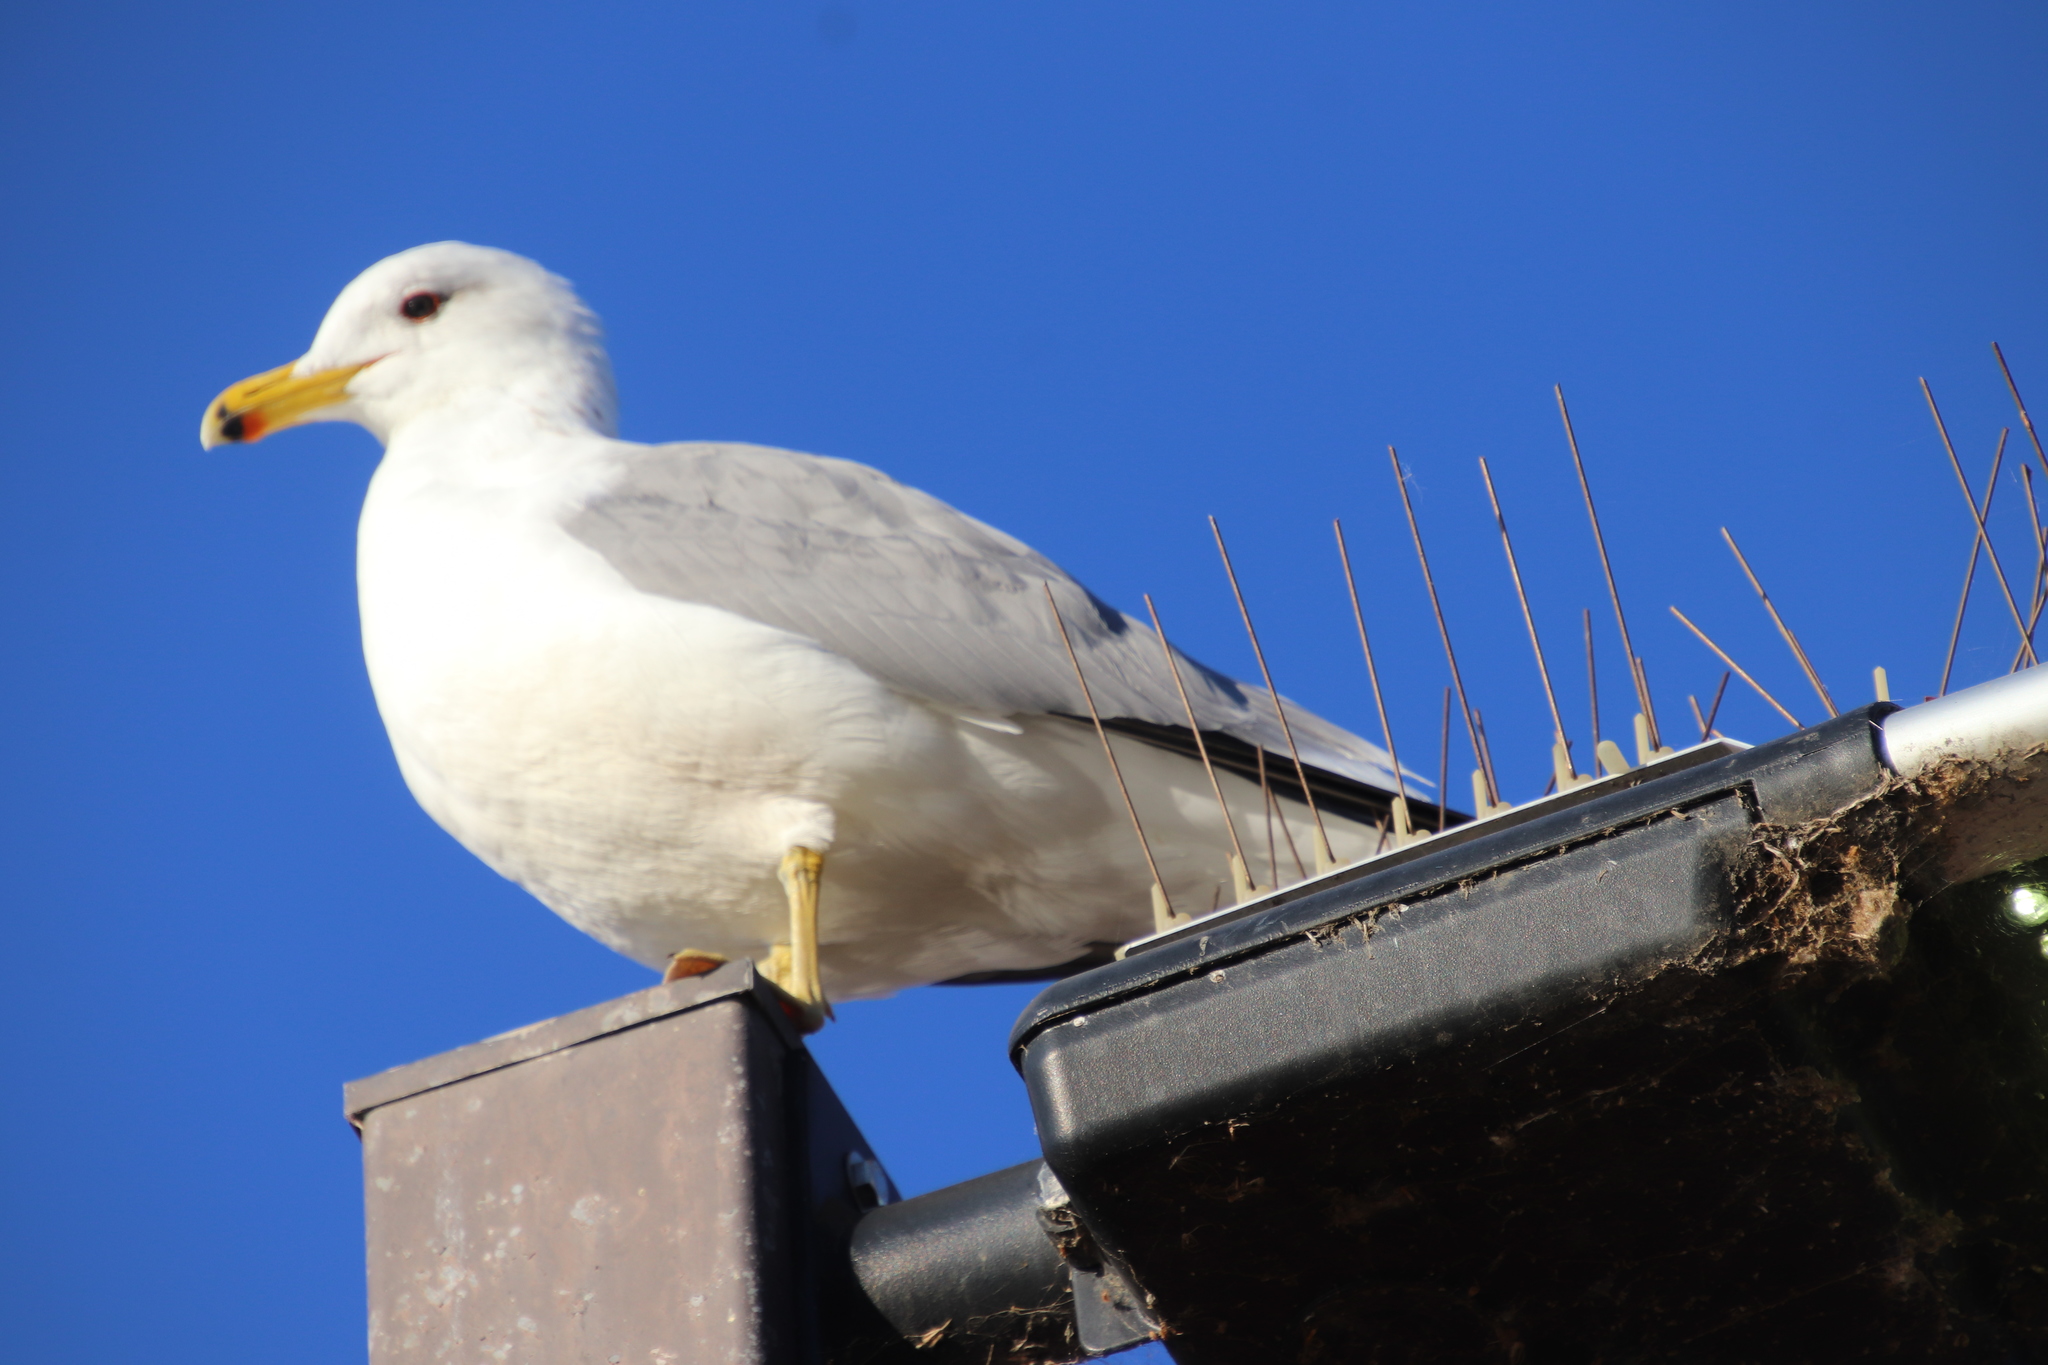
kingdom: Animalia
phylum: Chordata
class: Aves
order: Charadriiformes
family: Laridae
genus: Larus
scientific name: Larus californicus
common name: California gull
